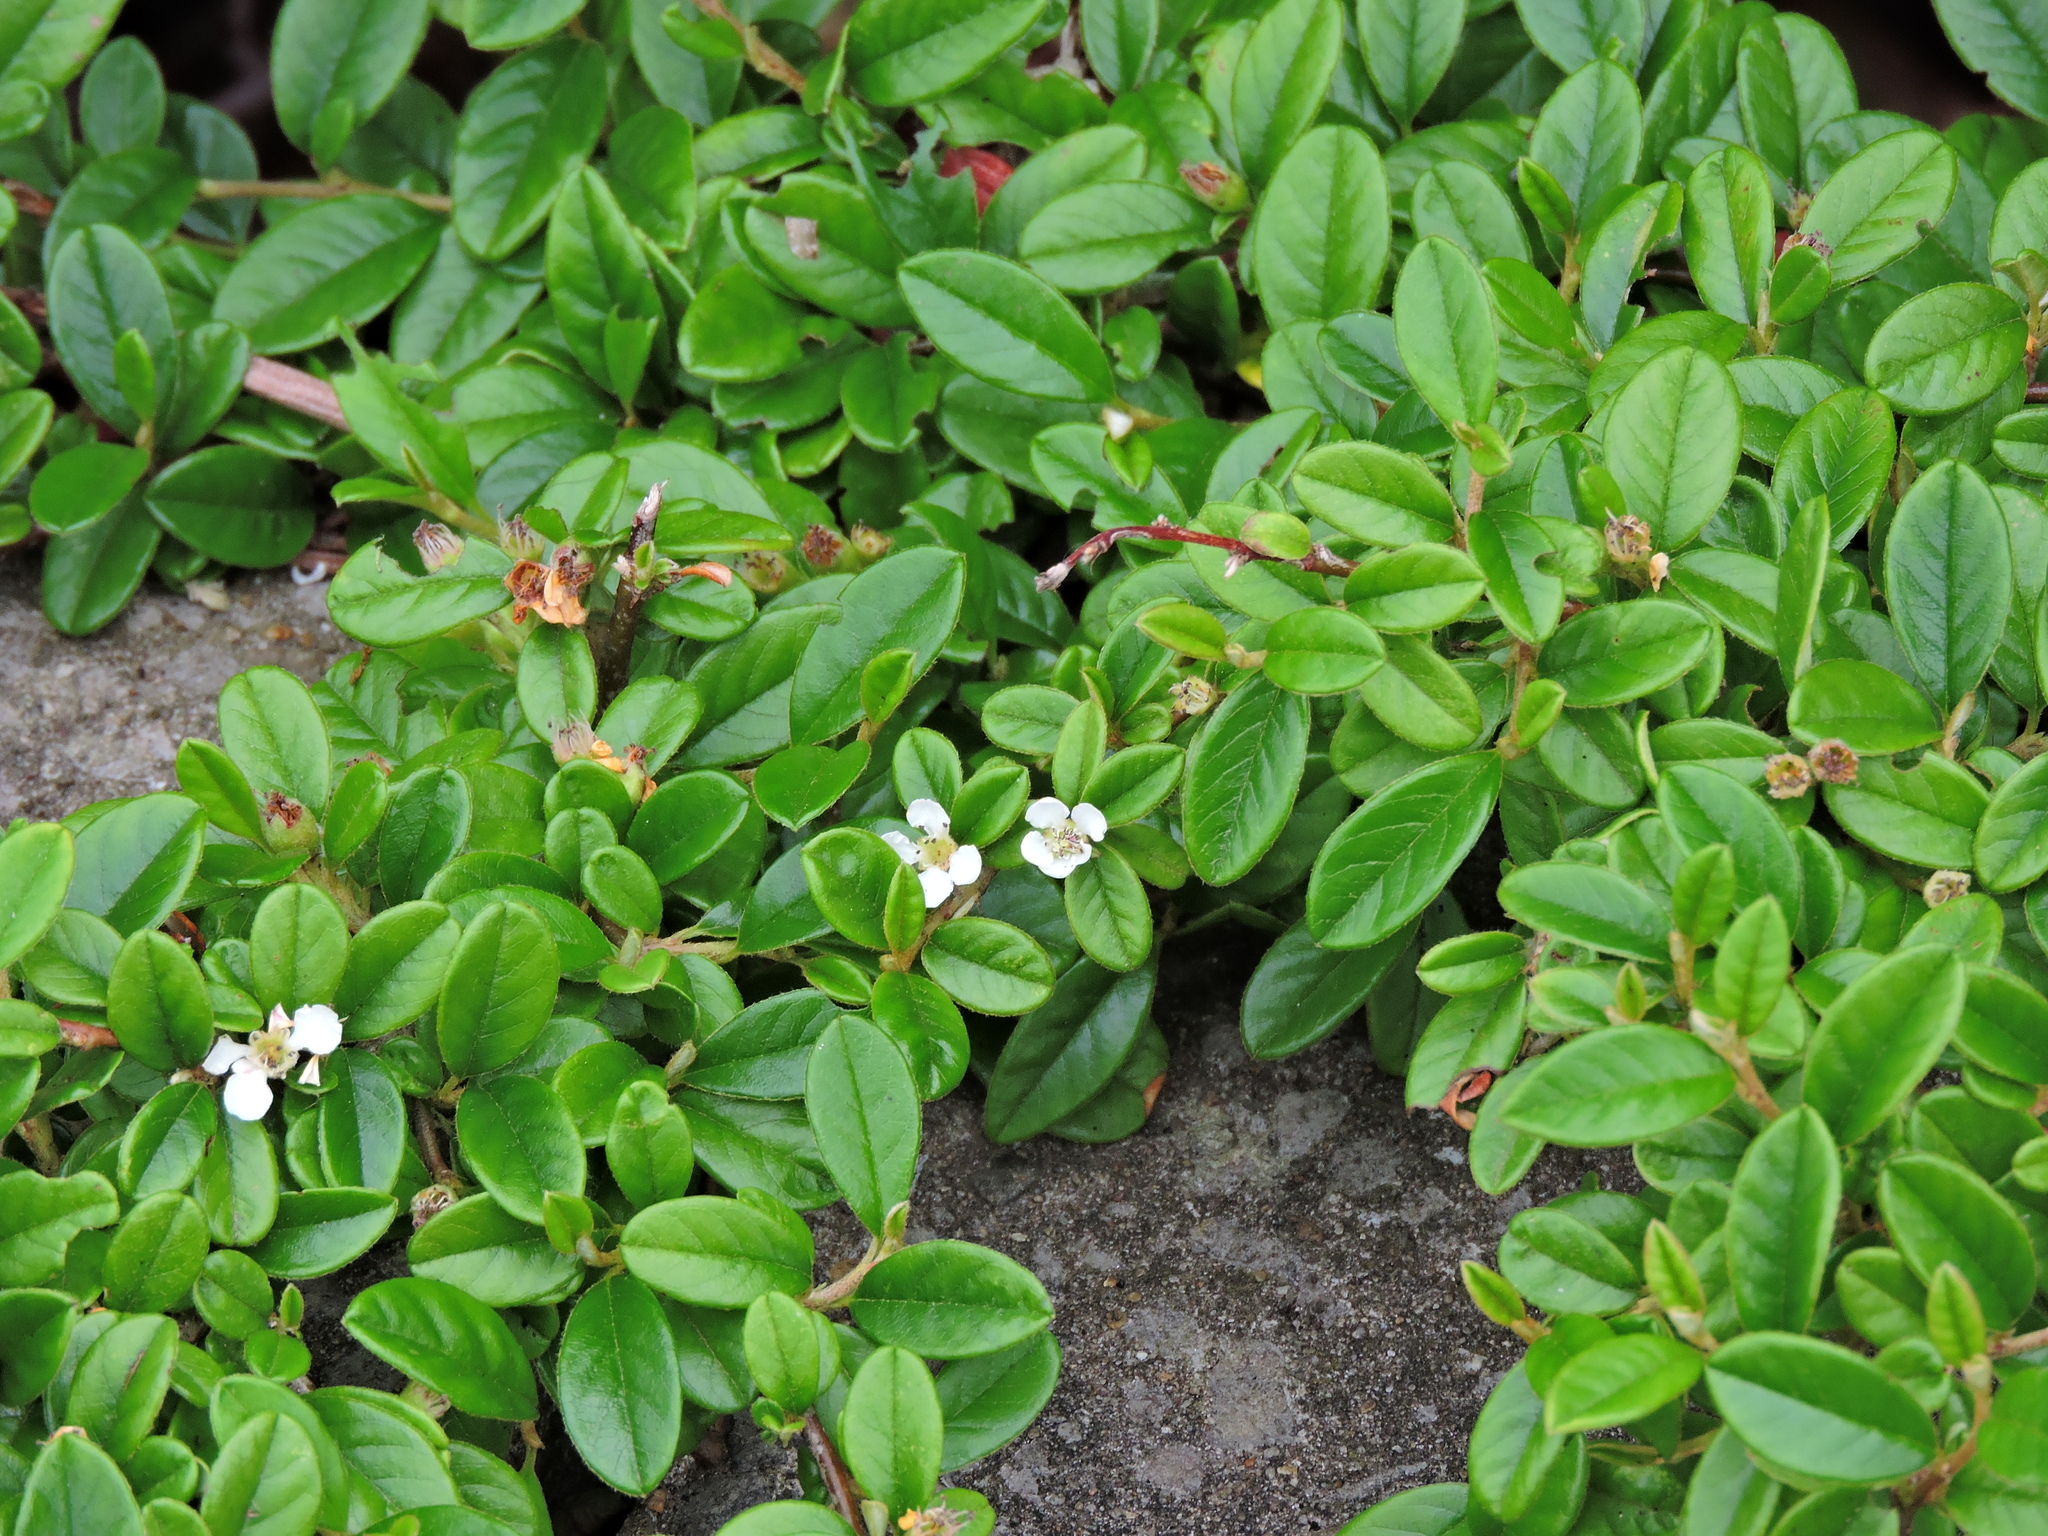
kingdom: Plantae
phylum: Tracheophyta
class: Magnoliopsida
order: Rosales
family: Rosaceae
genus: Cotoneaster
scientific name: Cotoneaster dammeri
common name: Bearberry cotoneaster
